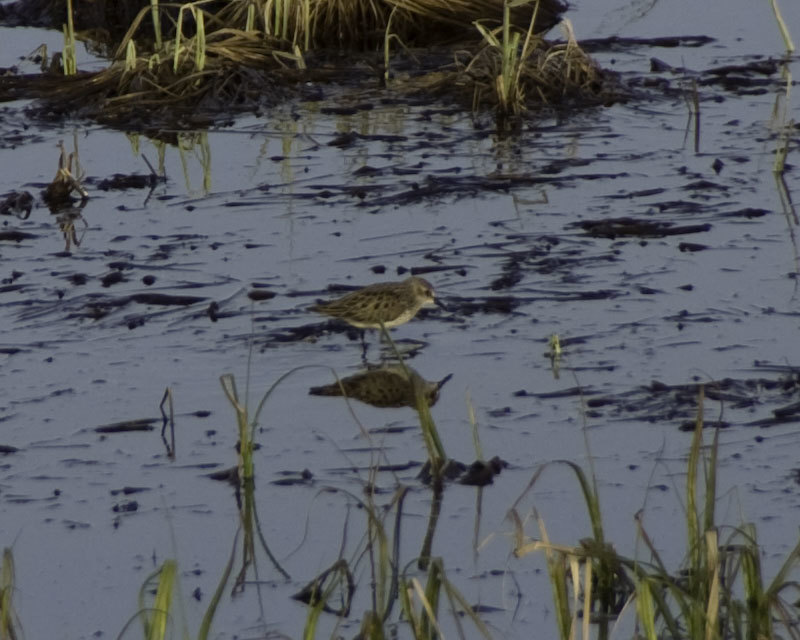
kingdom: Animalia
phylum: Chordata
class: Aves
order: Charadriiformes
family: Scolopacidae
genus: Calidris
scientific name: Calidris minutilla
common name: Least sandpiper
